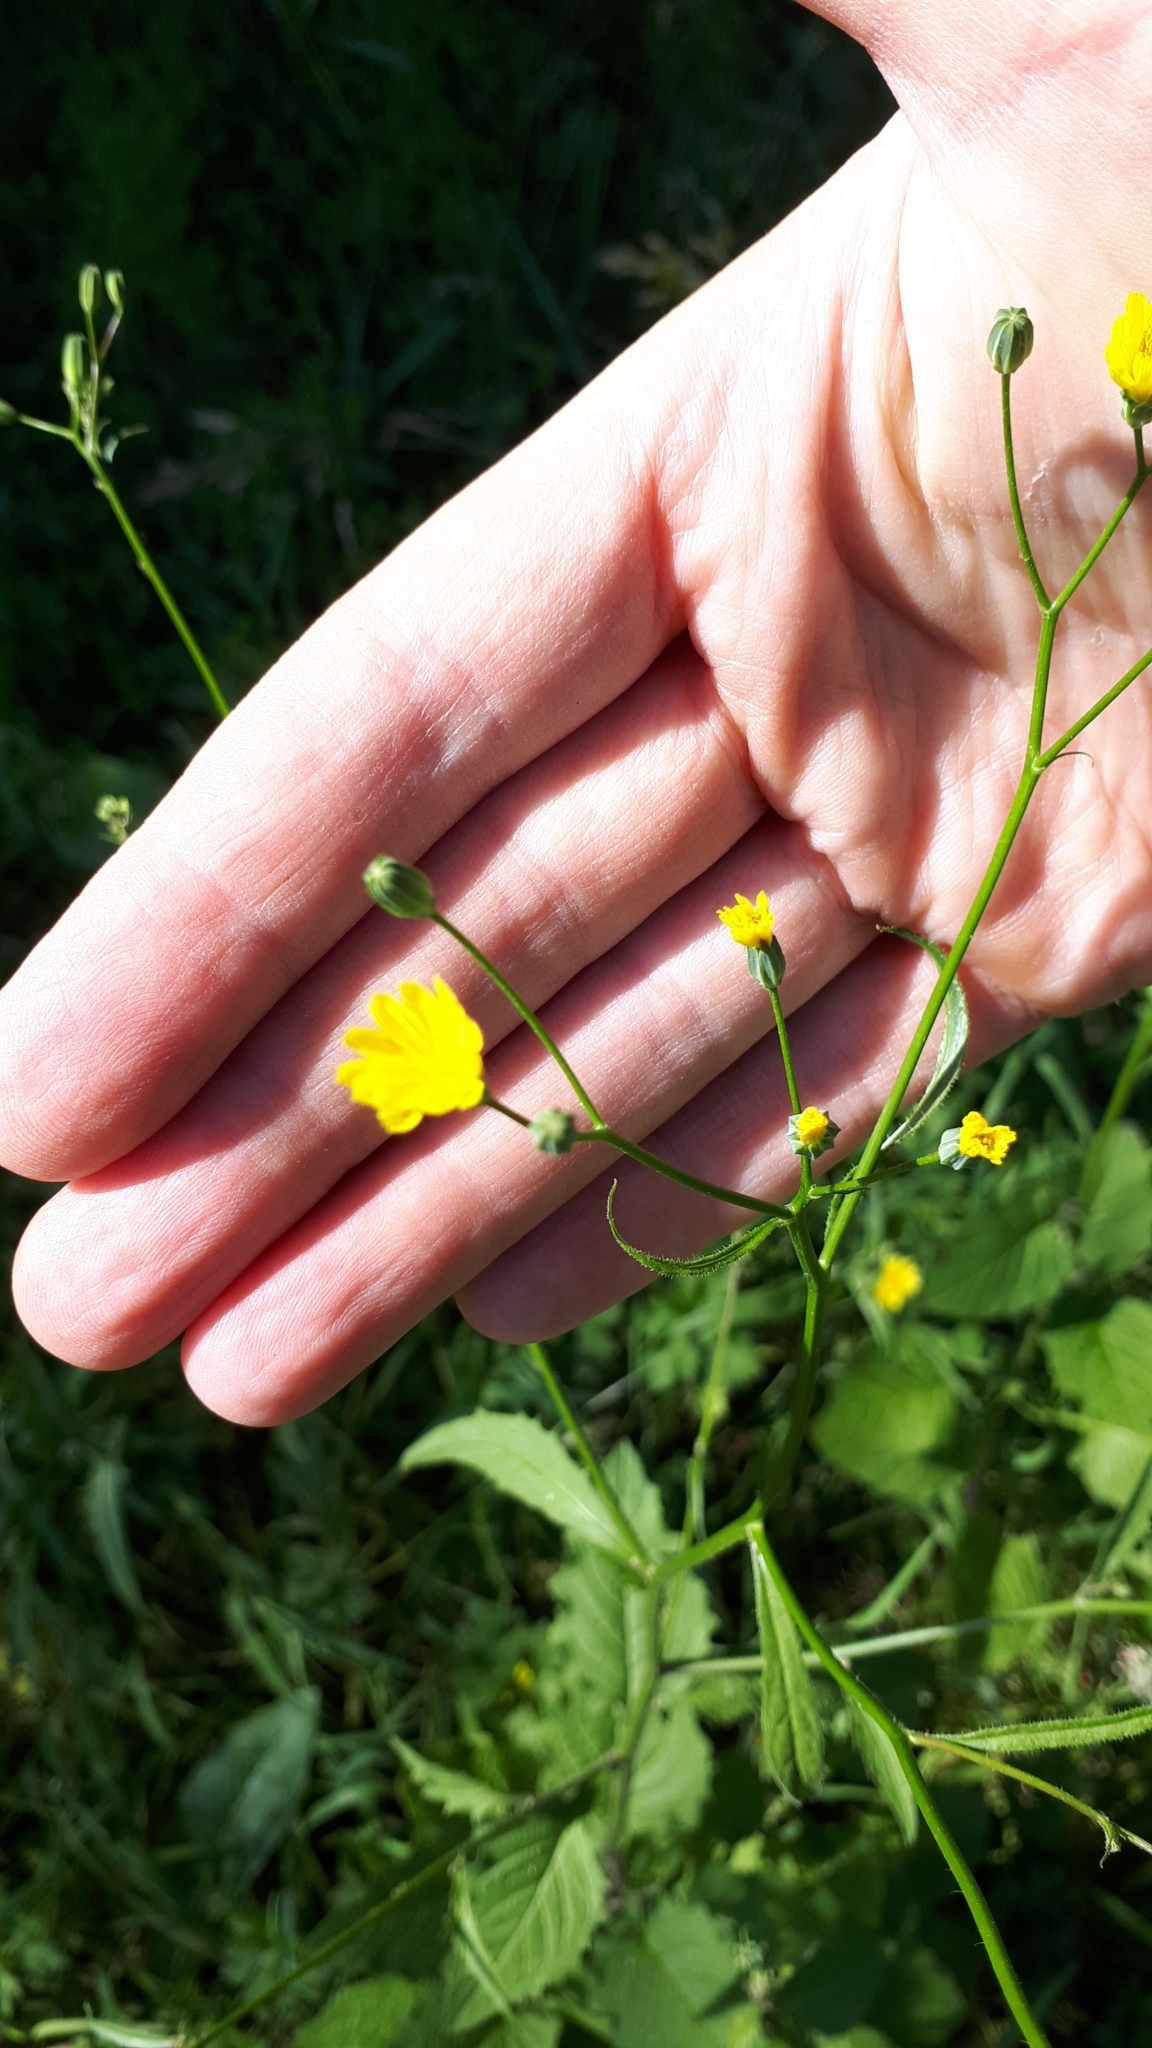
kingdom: Plantae
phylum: Tracheophyta
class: Magnoliopsida
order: Asterales
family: Asteraceae
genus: Lapsana
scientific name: Lapsana communis
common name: Nipplewort
